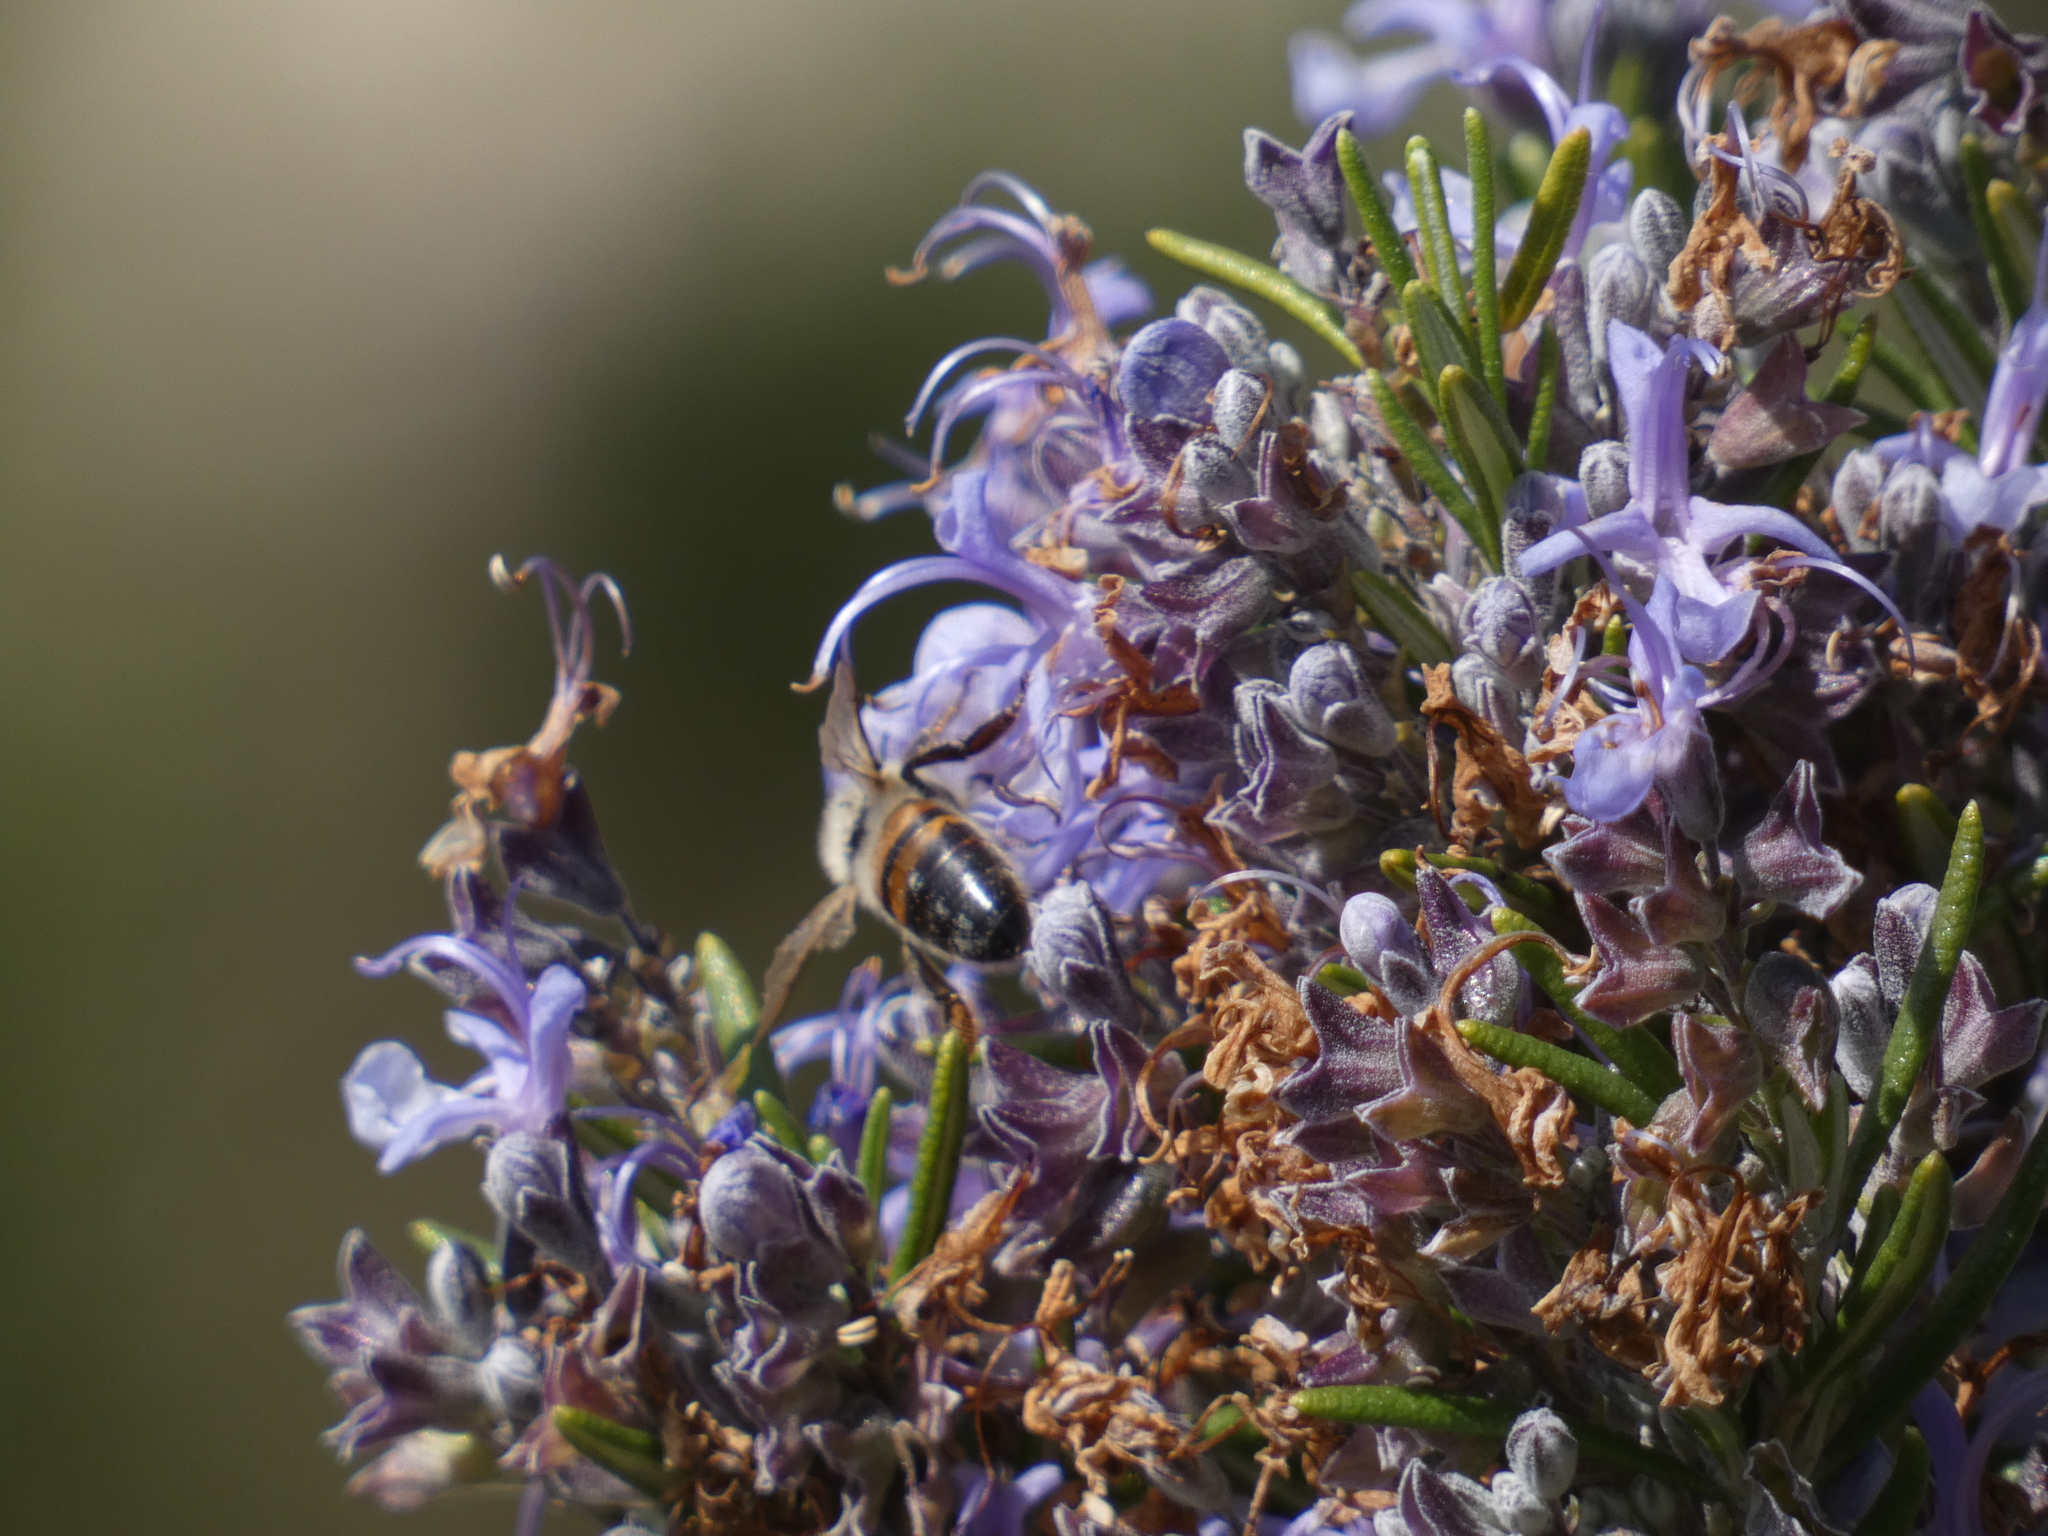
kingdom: Animalia
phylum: Arthropoda
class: Insecta
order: Hymenoptera
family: Apidae
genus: Apis
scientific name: Apis mellifera
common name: Honey bee
